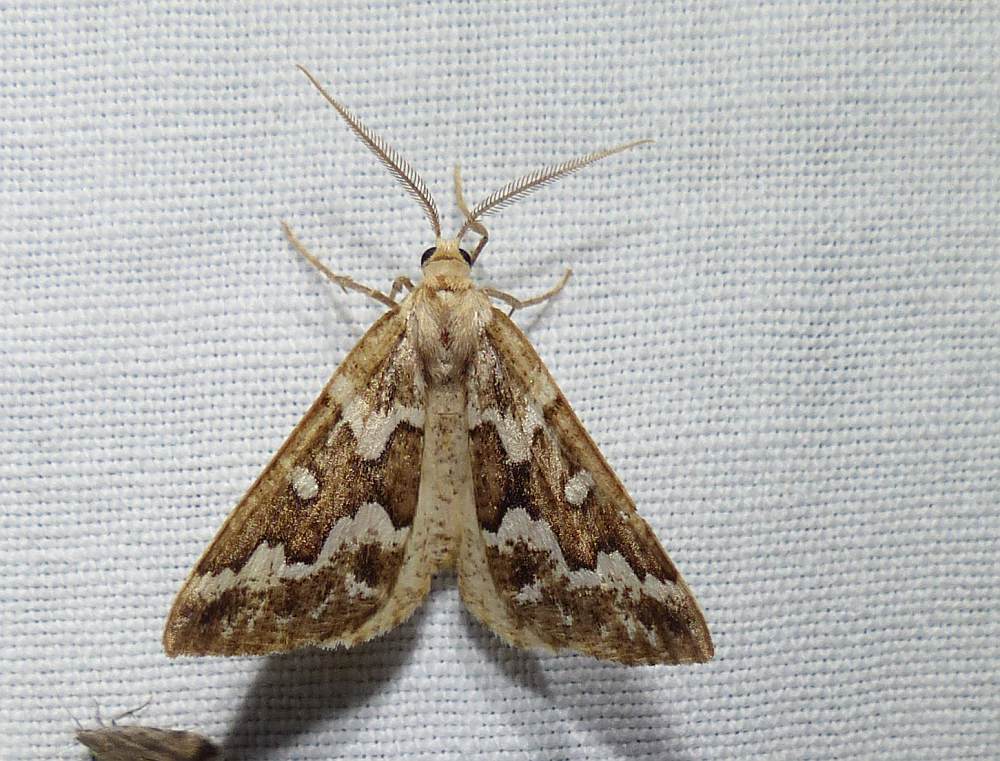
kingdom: Animalia
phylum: Arthropoda
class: Insecta
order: Lepidoptera
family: Geometridae
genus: Caripeta
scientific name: Caripeta divisata
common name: Gray spruce looper
